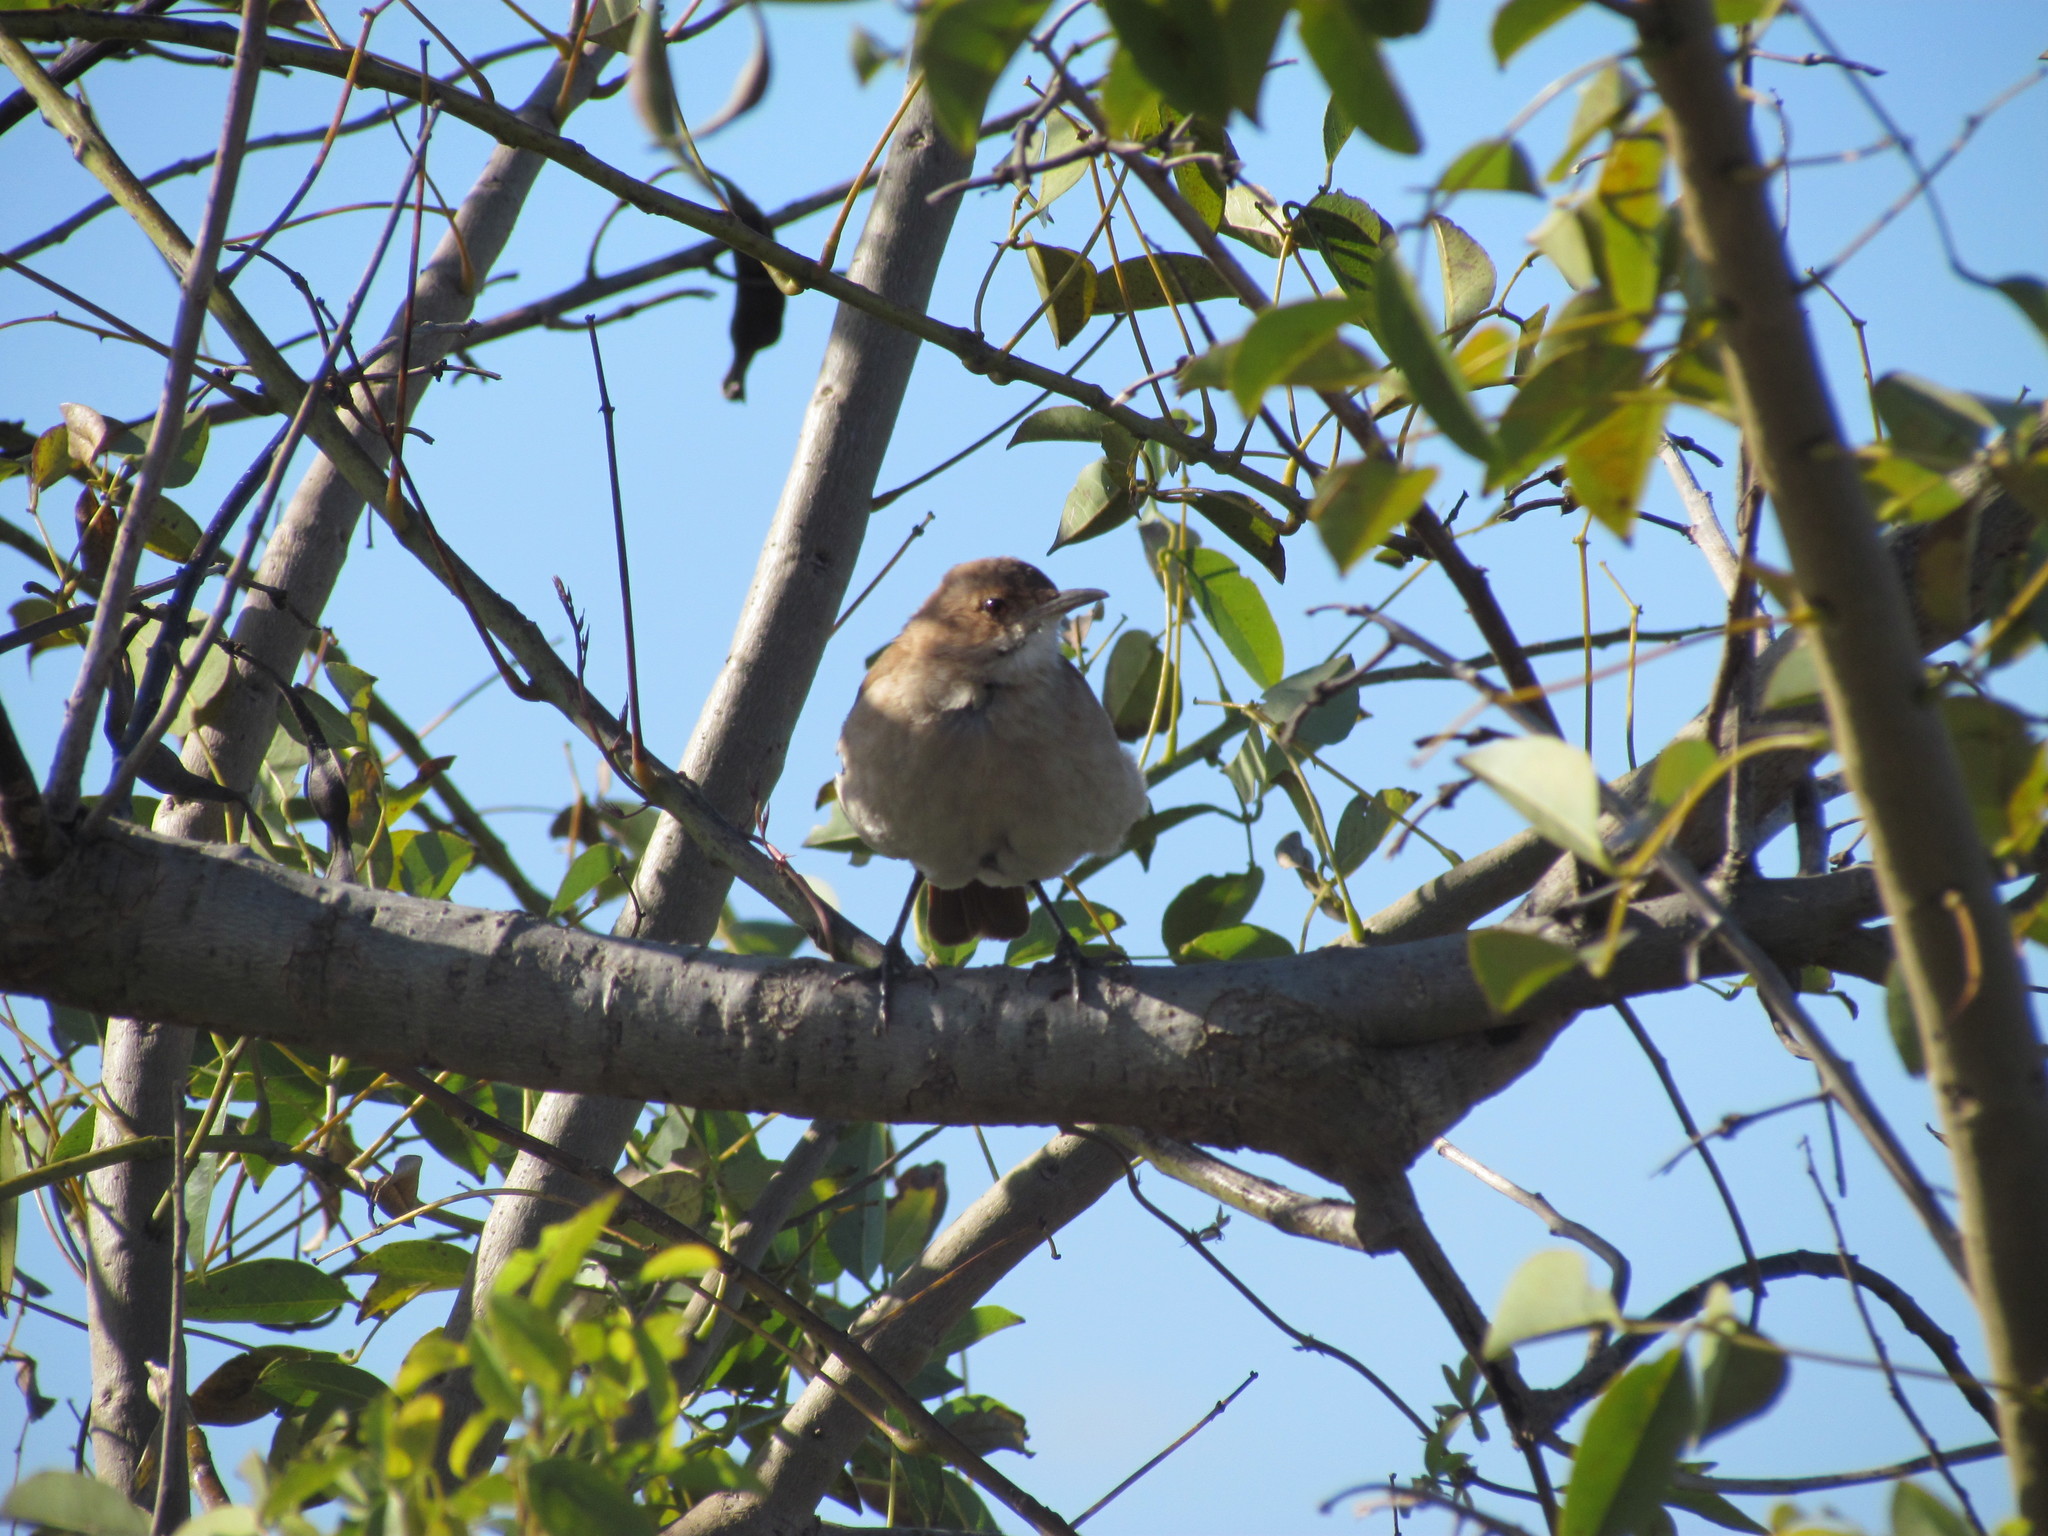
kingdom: Animalia
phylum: Chordata
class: Aves
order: Passeriformes
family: Furnariidae
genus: Furnarius
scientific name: Furnarius rufus
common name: Rufous hornero
